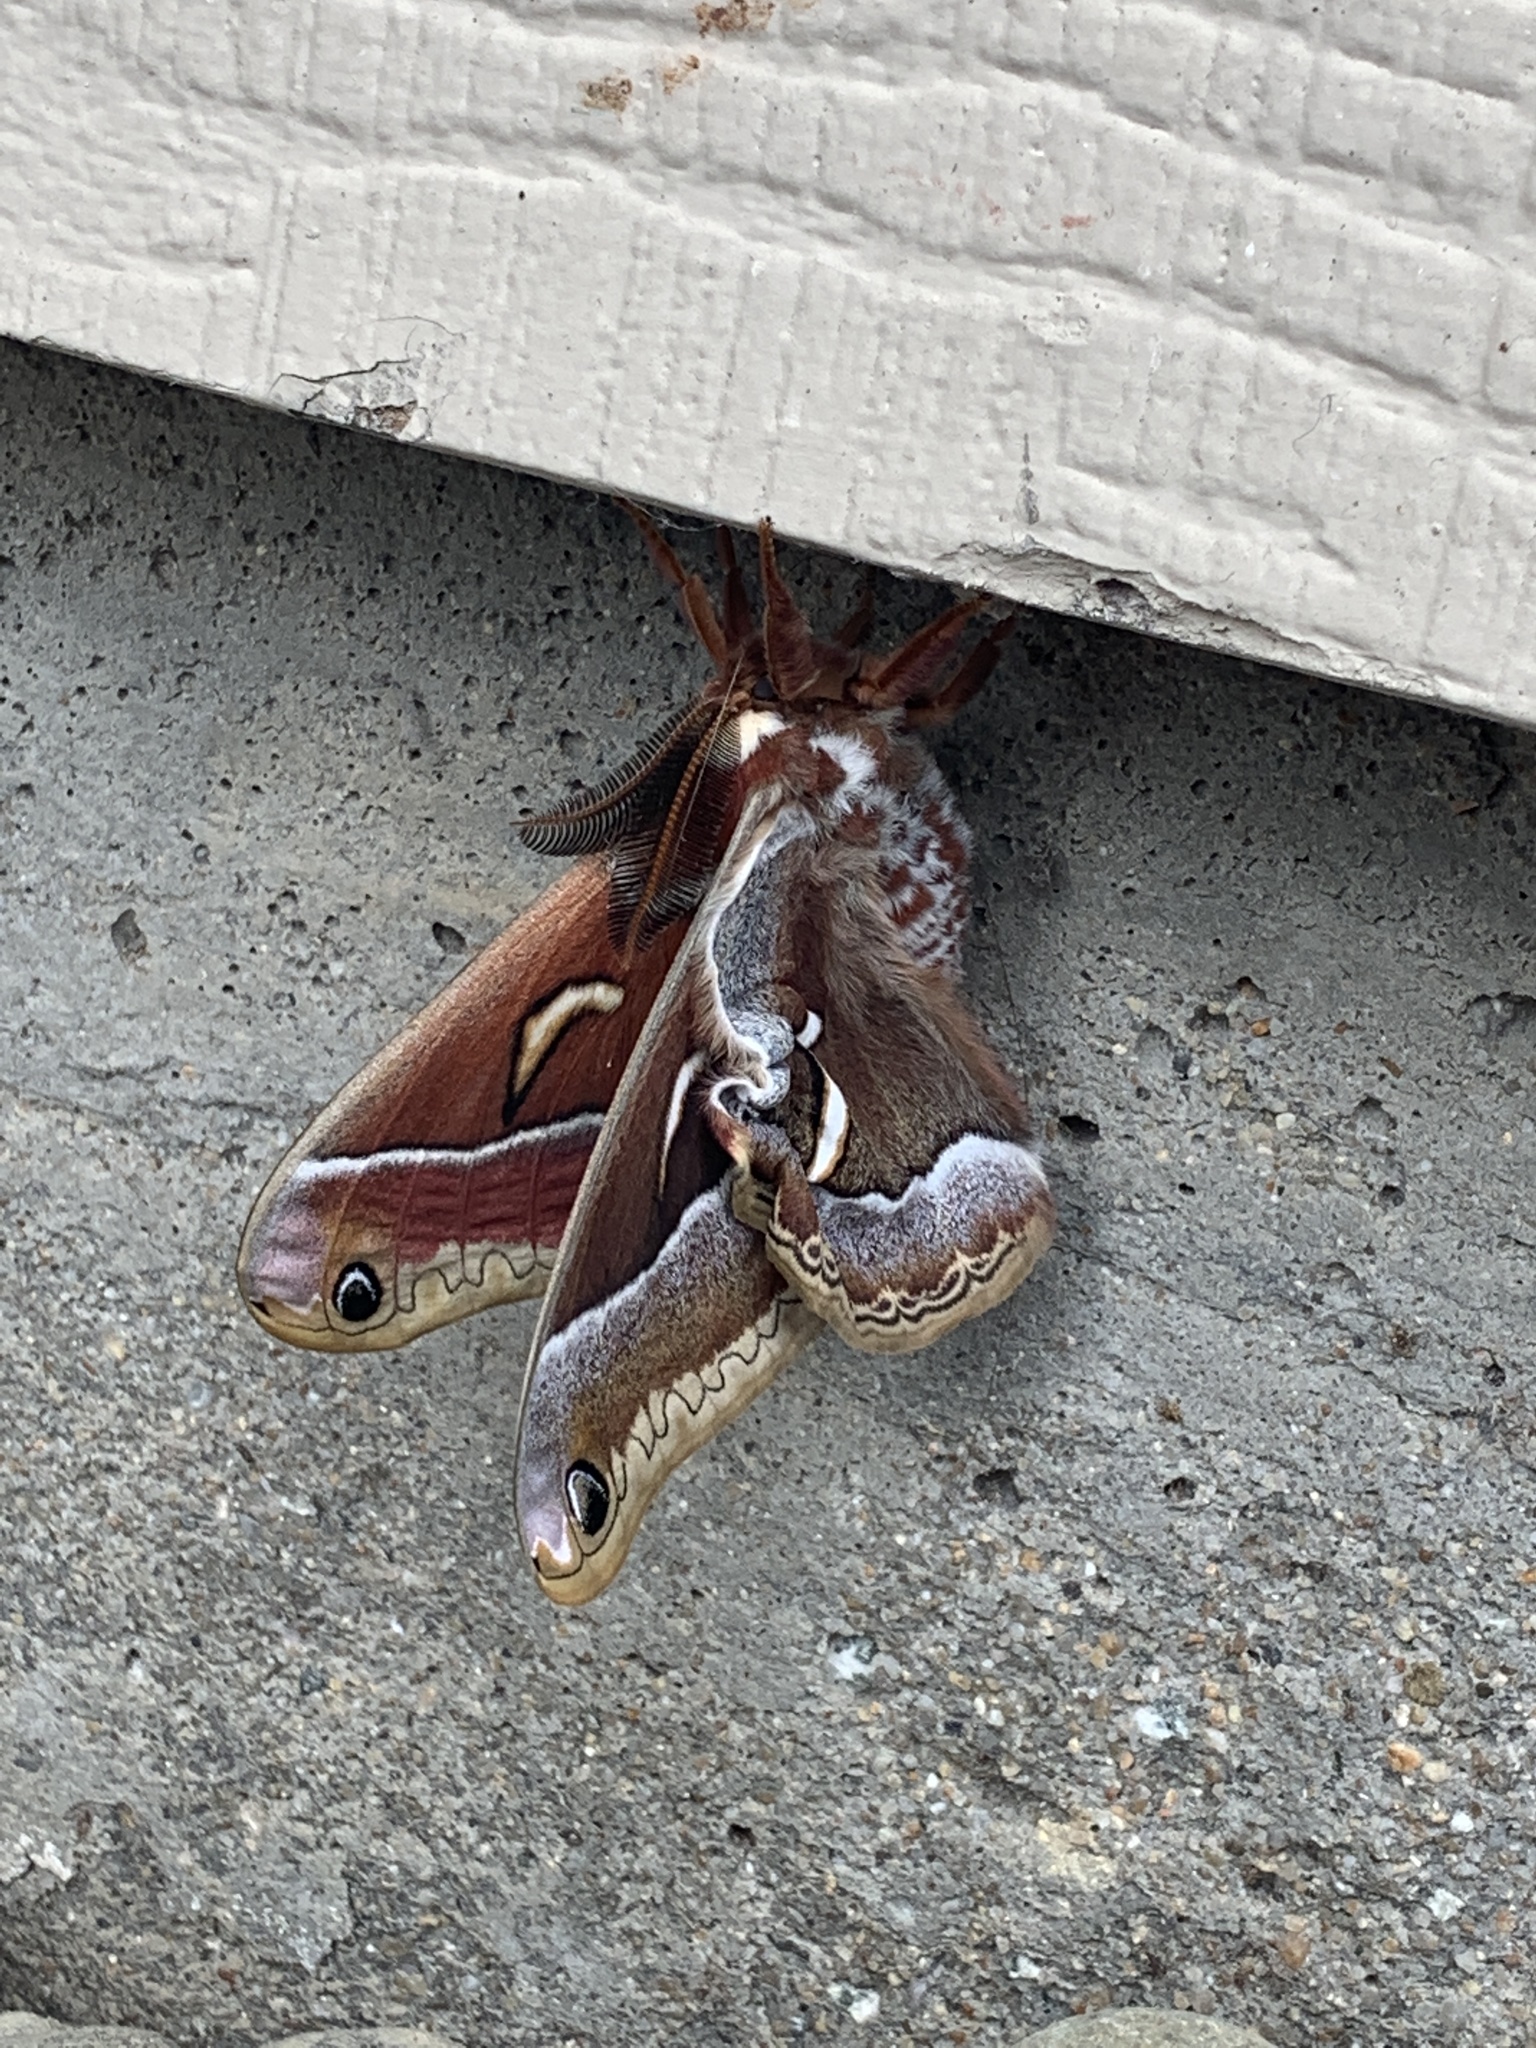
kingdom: Animalia
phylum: Arthropoda
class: Insecta
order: Lepidoptera
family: Saturniidae
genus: Hyalophora
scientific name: Hyalophora euryalus
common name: Ceanothus silkmoth
